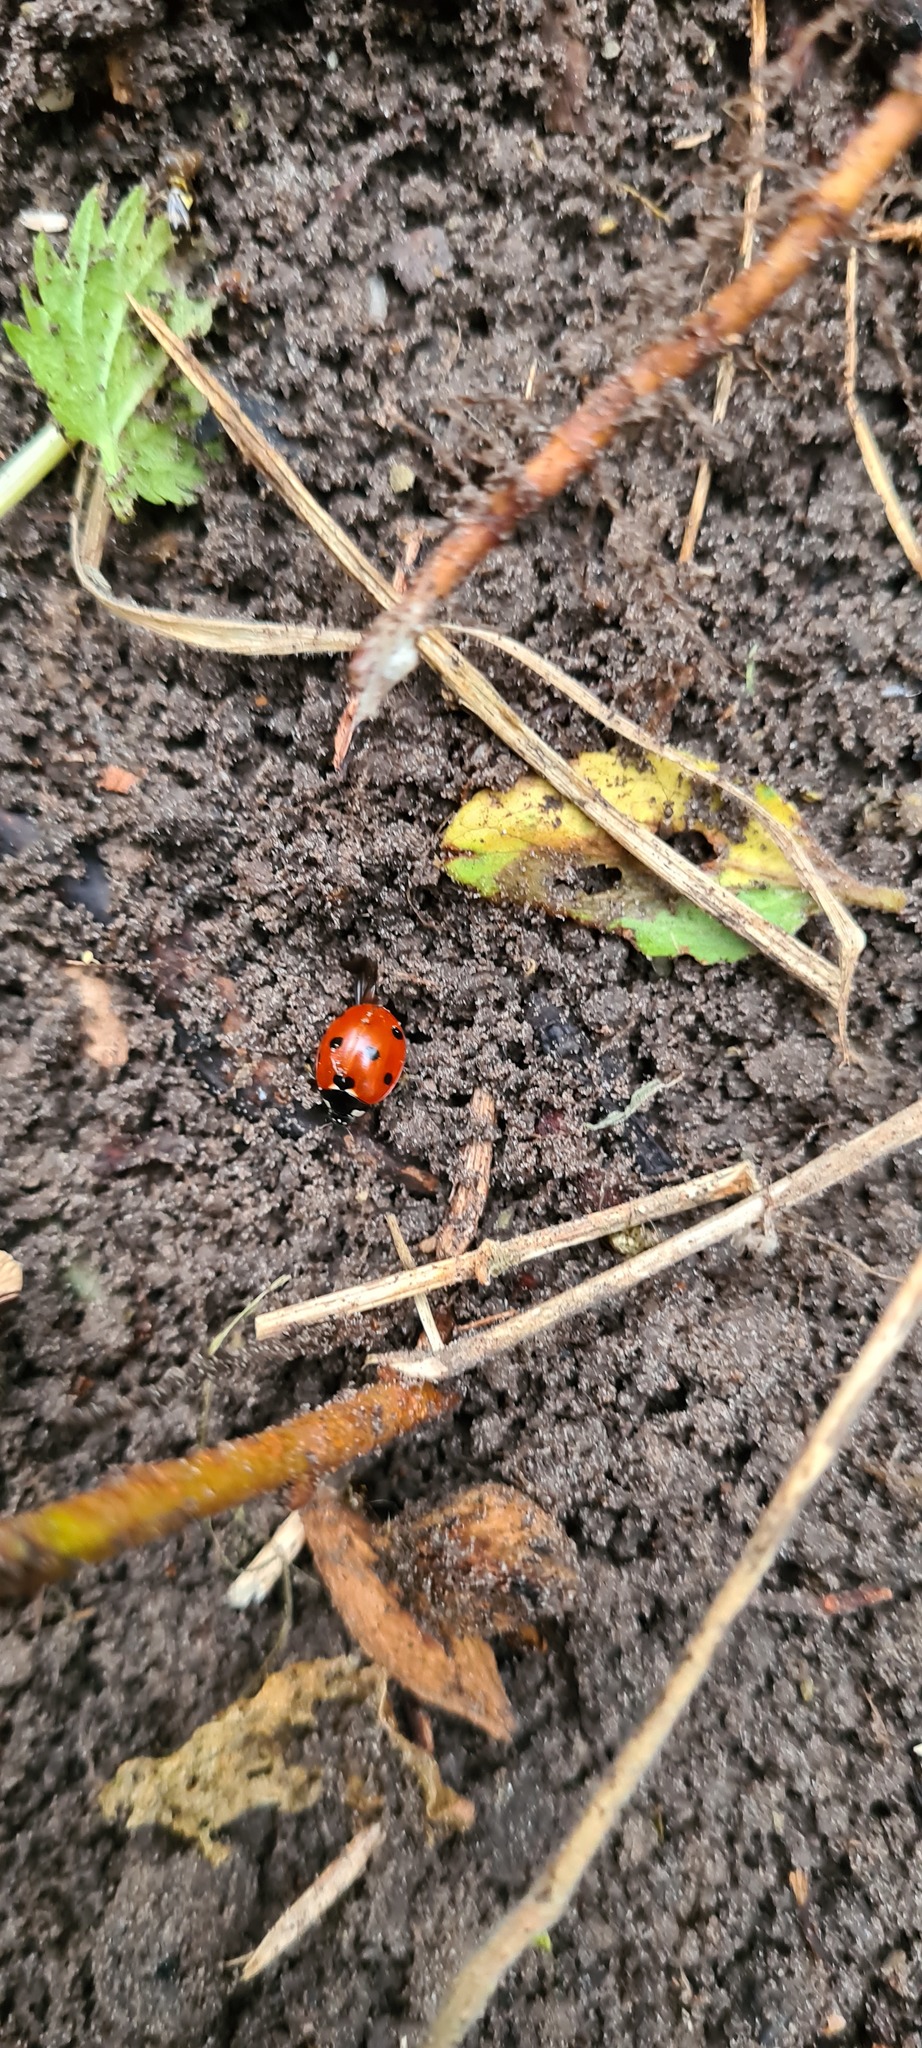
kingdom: Animalia
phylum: Arthropoda
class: Insecta
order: Coleoptera
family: Coccinellidae
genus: Coccinella
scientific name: Coccinella septempunctata
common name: Sevenspotted lady beetle
